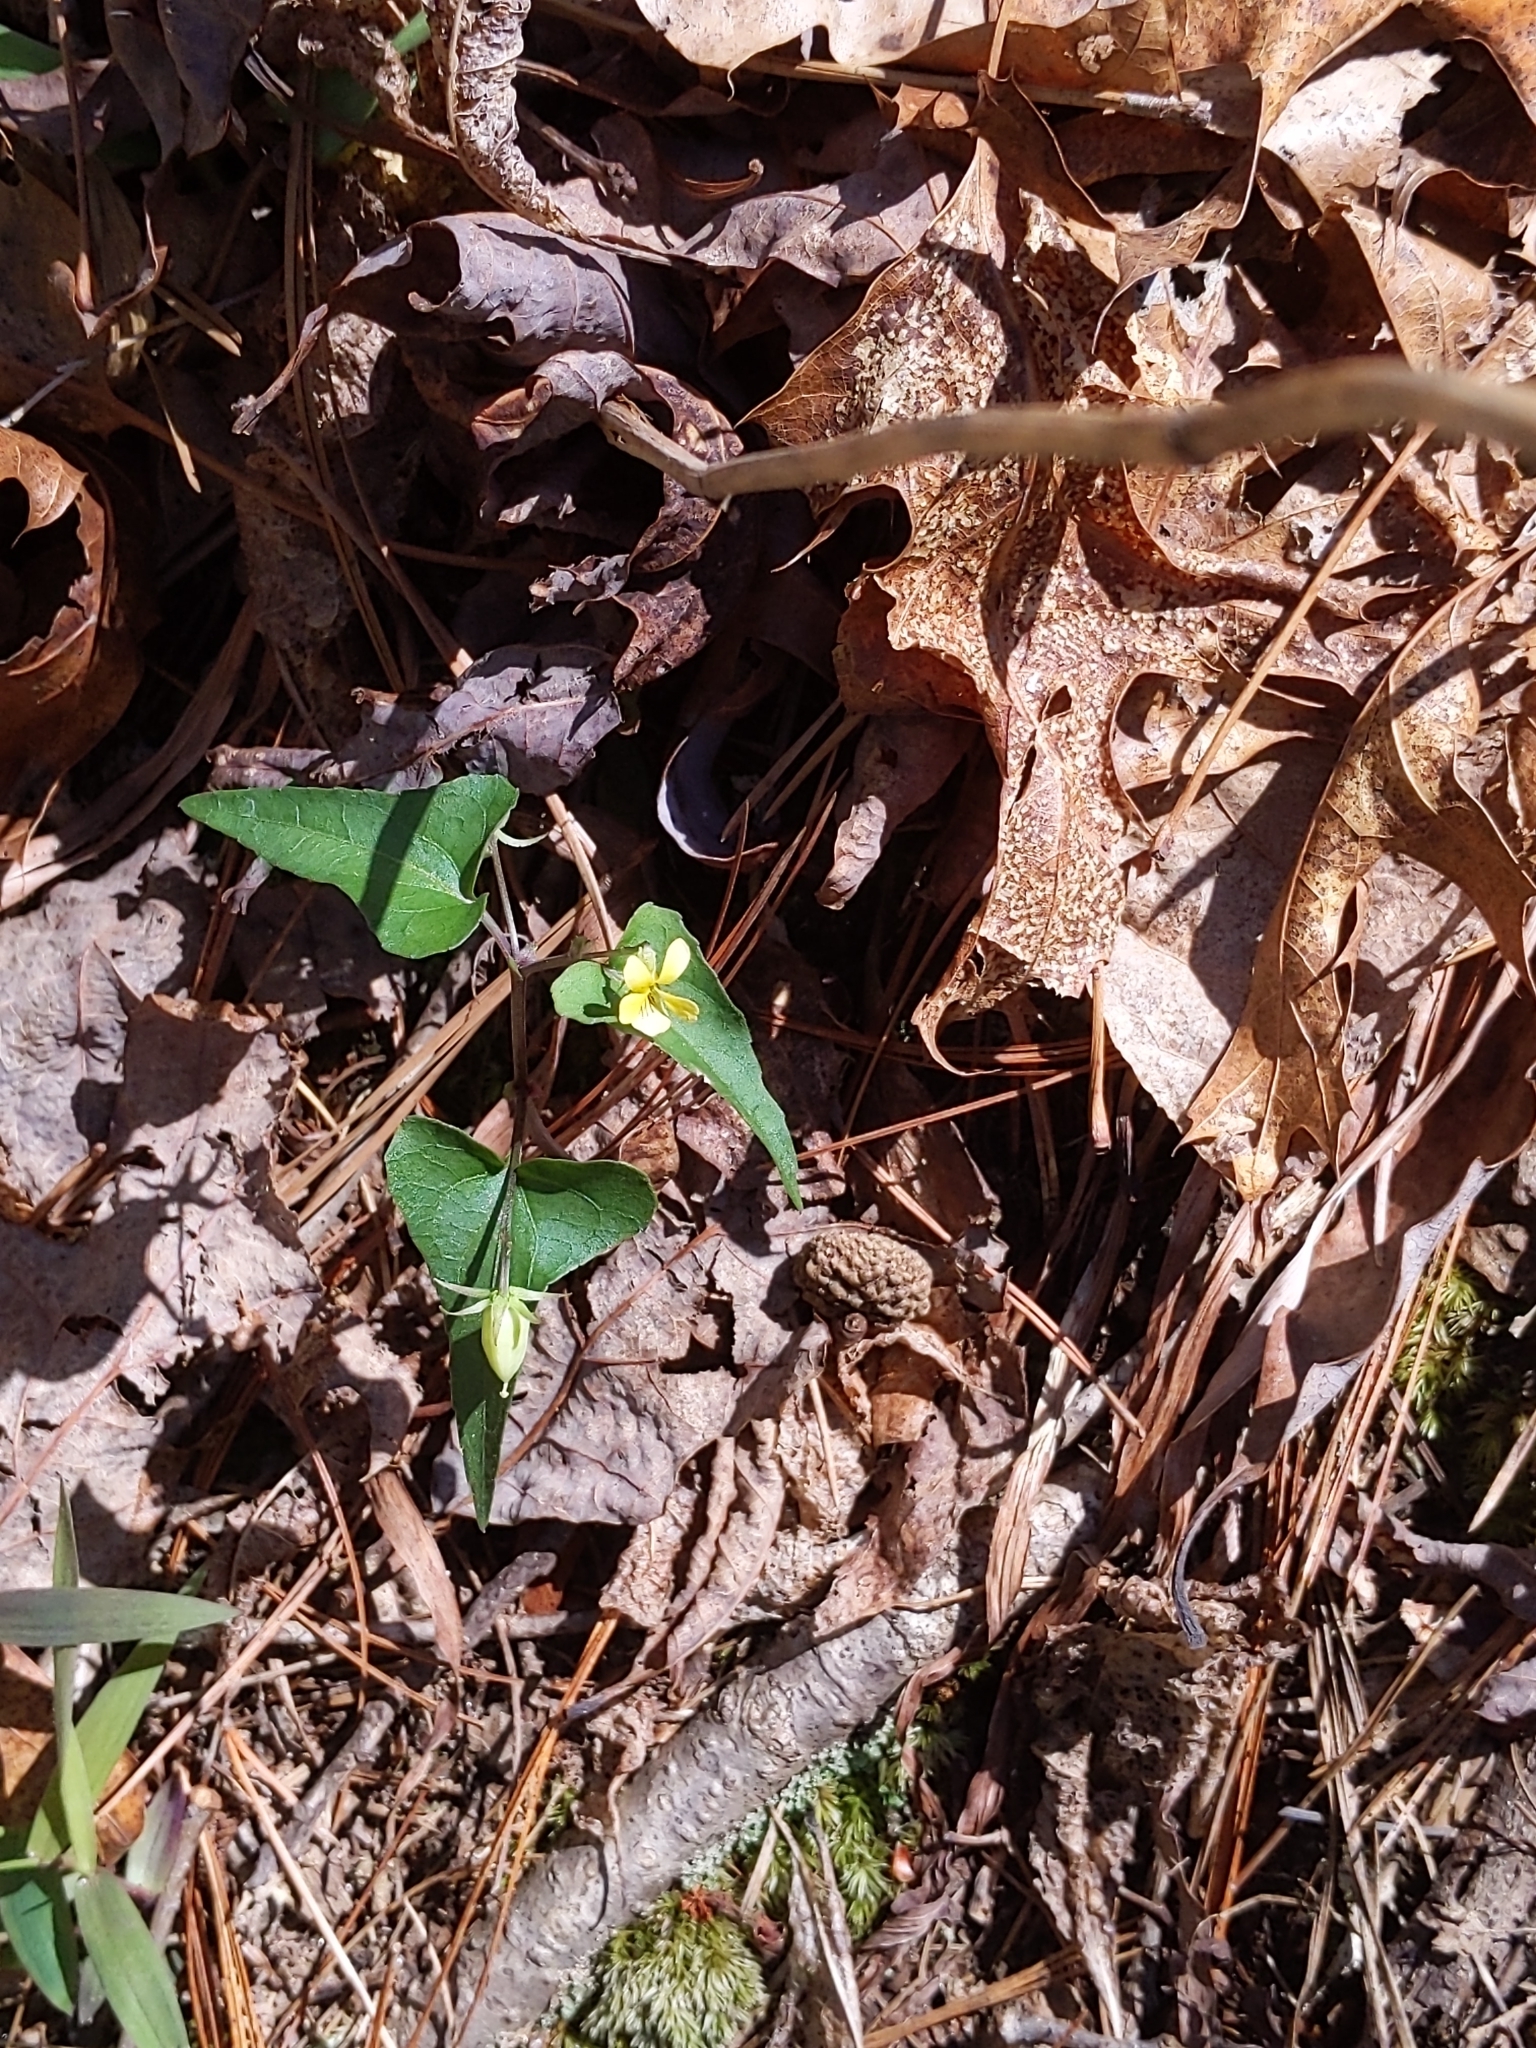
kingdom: Plantae
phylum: Tracheophyta
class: Magnoliopsida
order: Malpighiales
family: Violaceae
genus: Viola
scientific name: Viola hastata
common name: Spear-leaf violet
